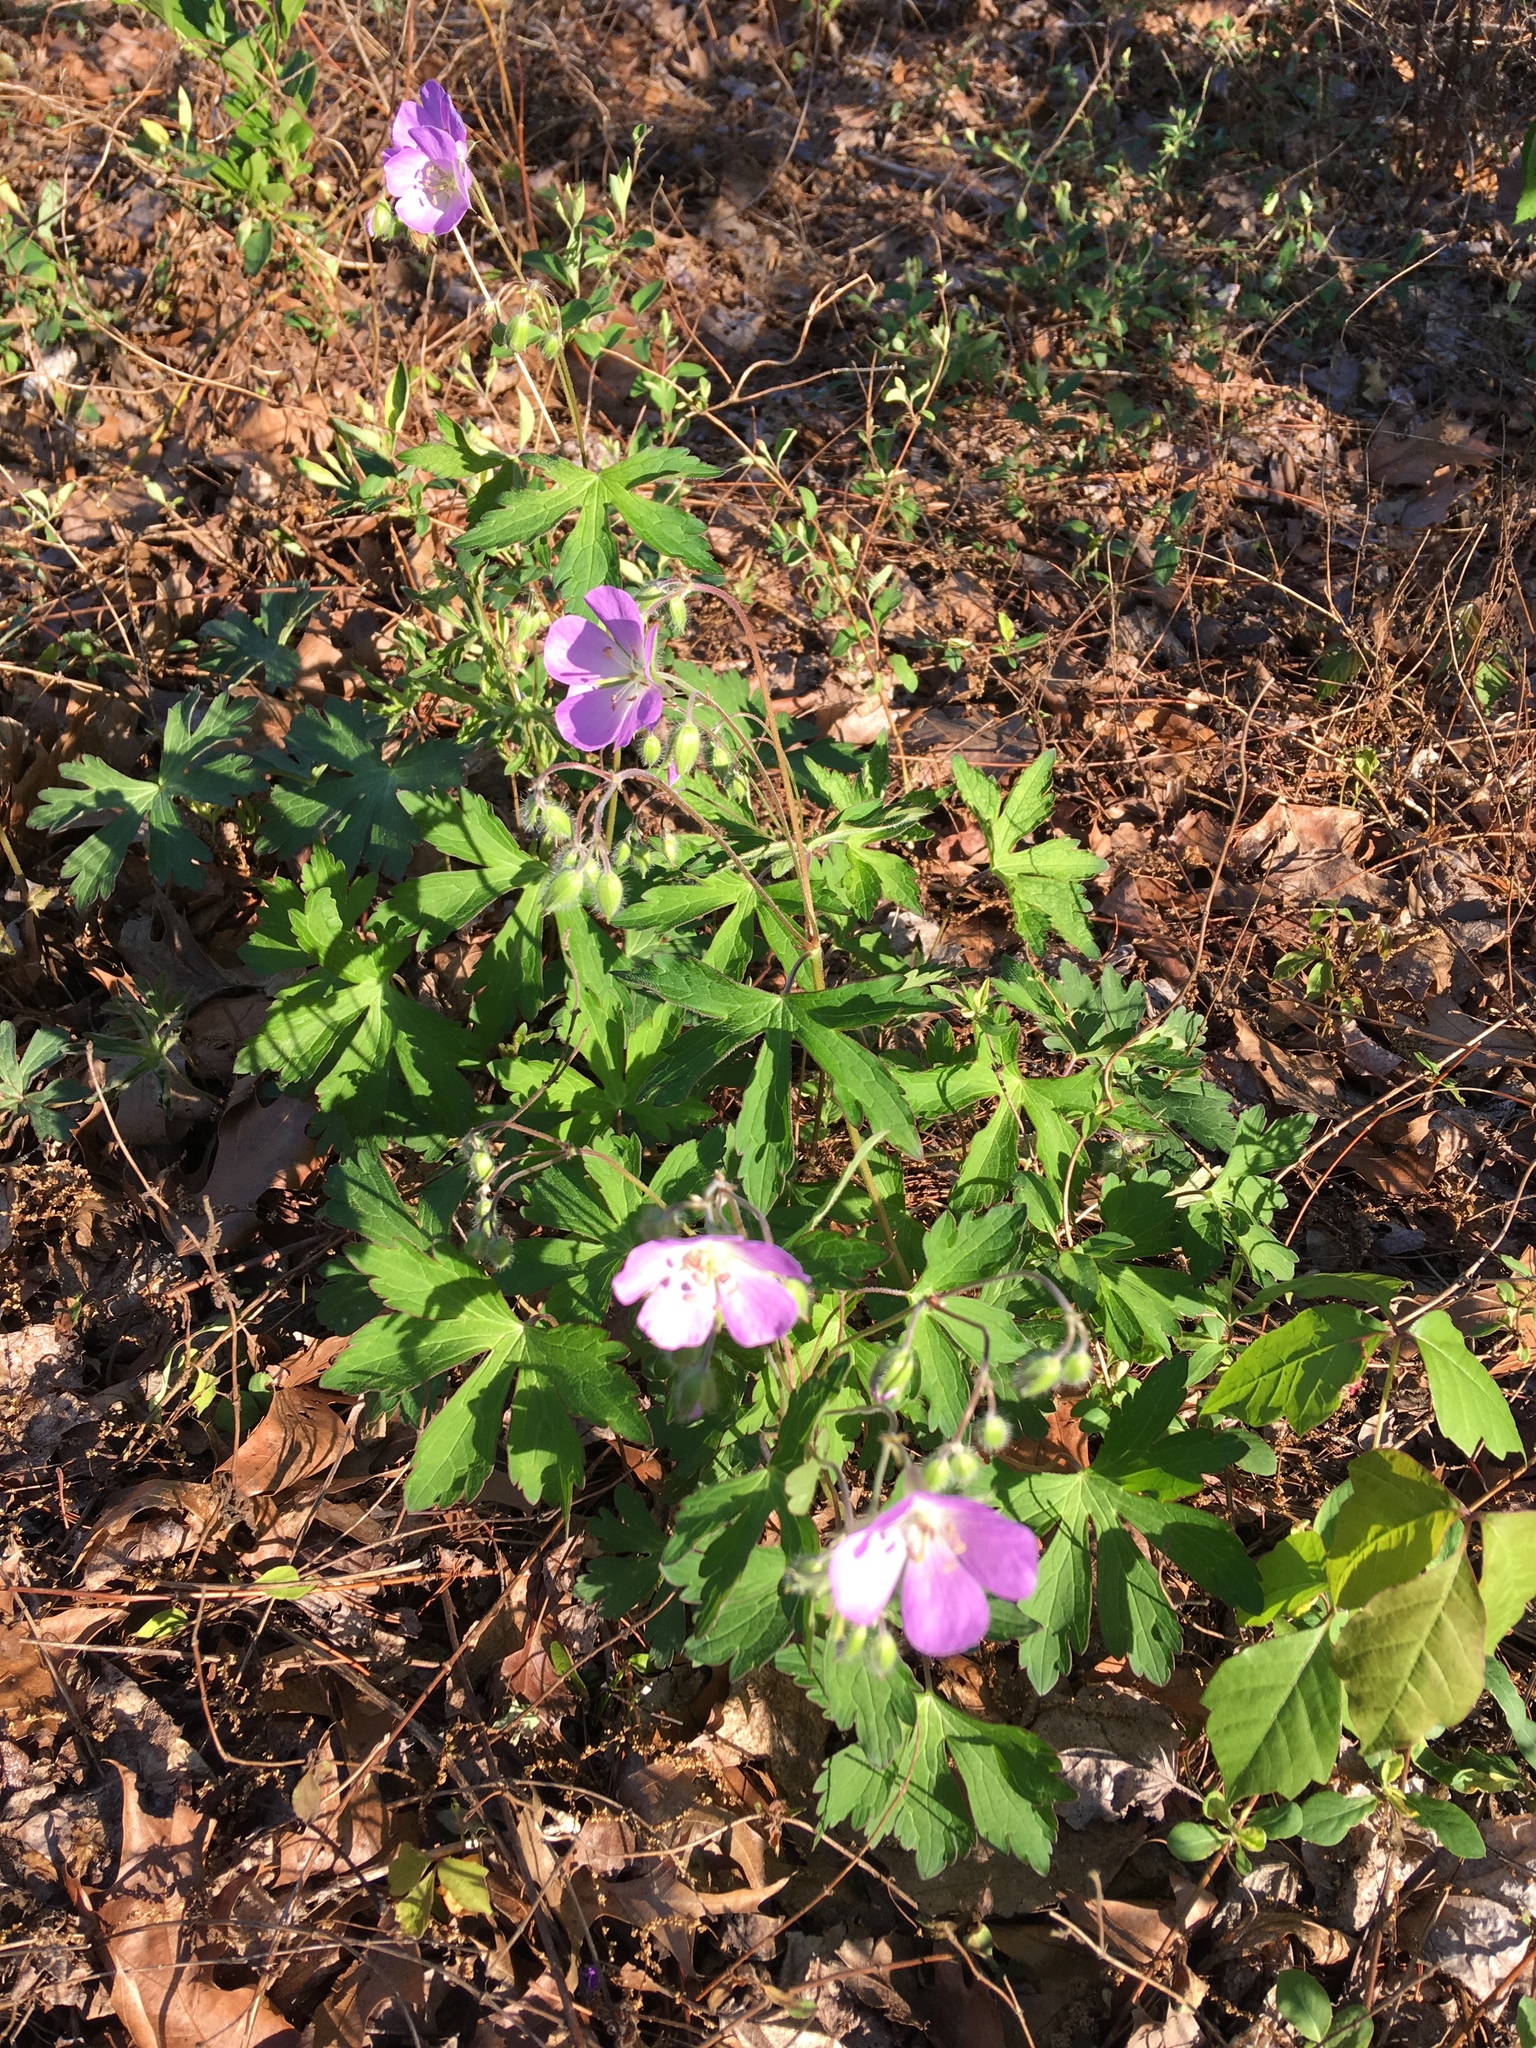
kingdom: Plantae
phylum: Tracheophyta
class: Magnoliopsida
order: Geraniales
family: Geraniaceae
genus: Geranium
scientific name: Geranium maculatum
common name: Spotted geranium
